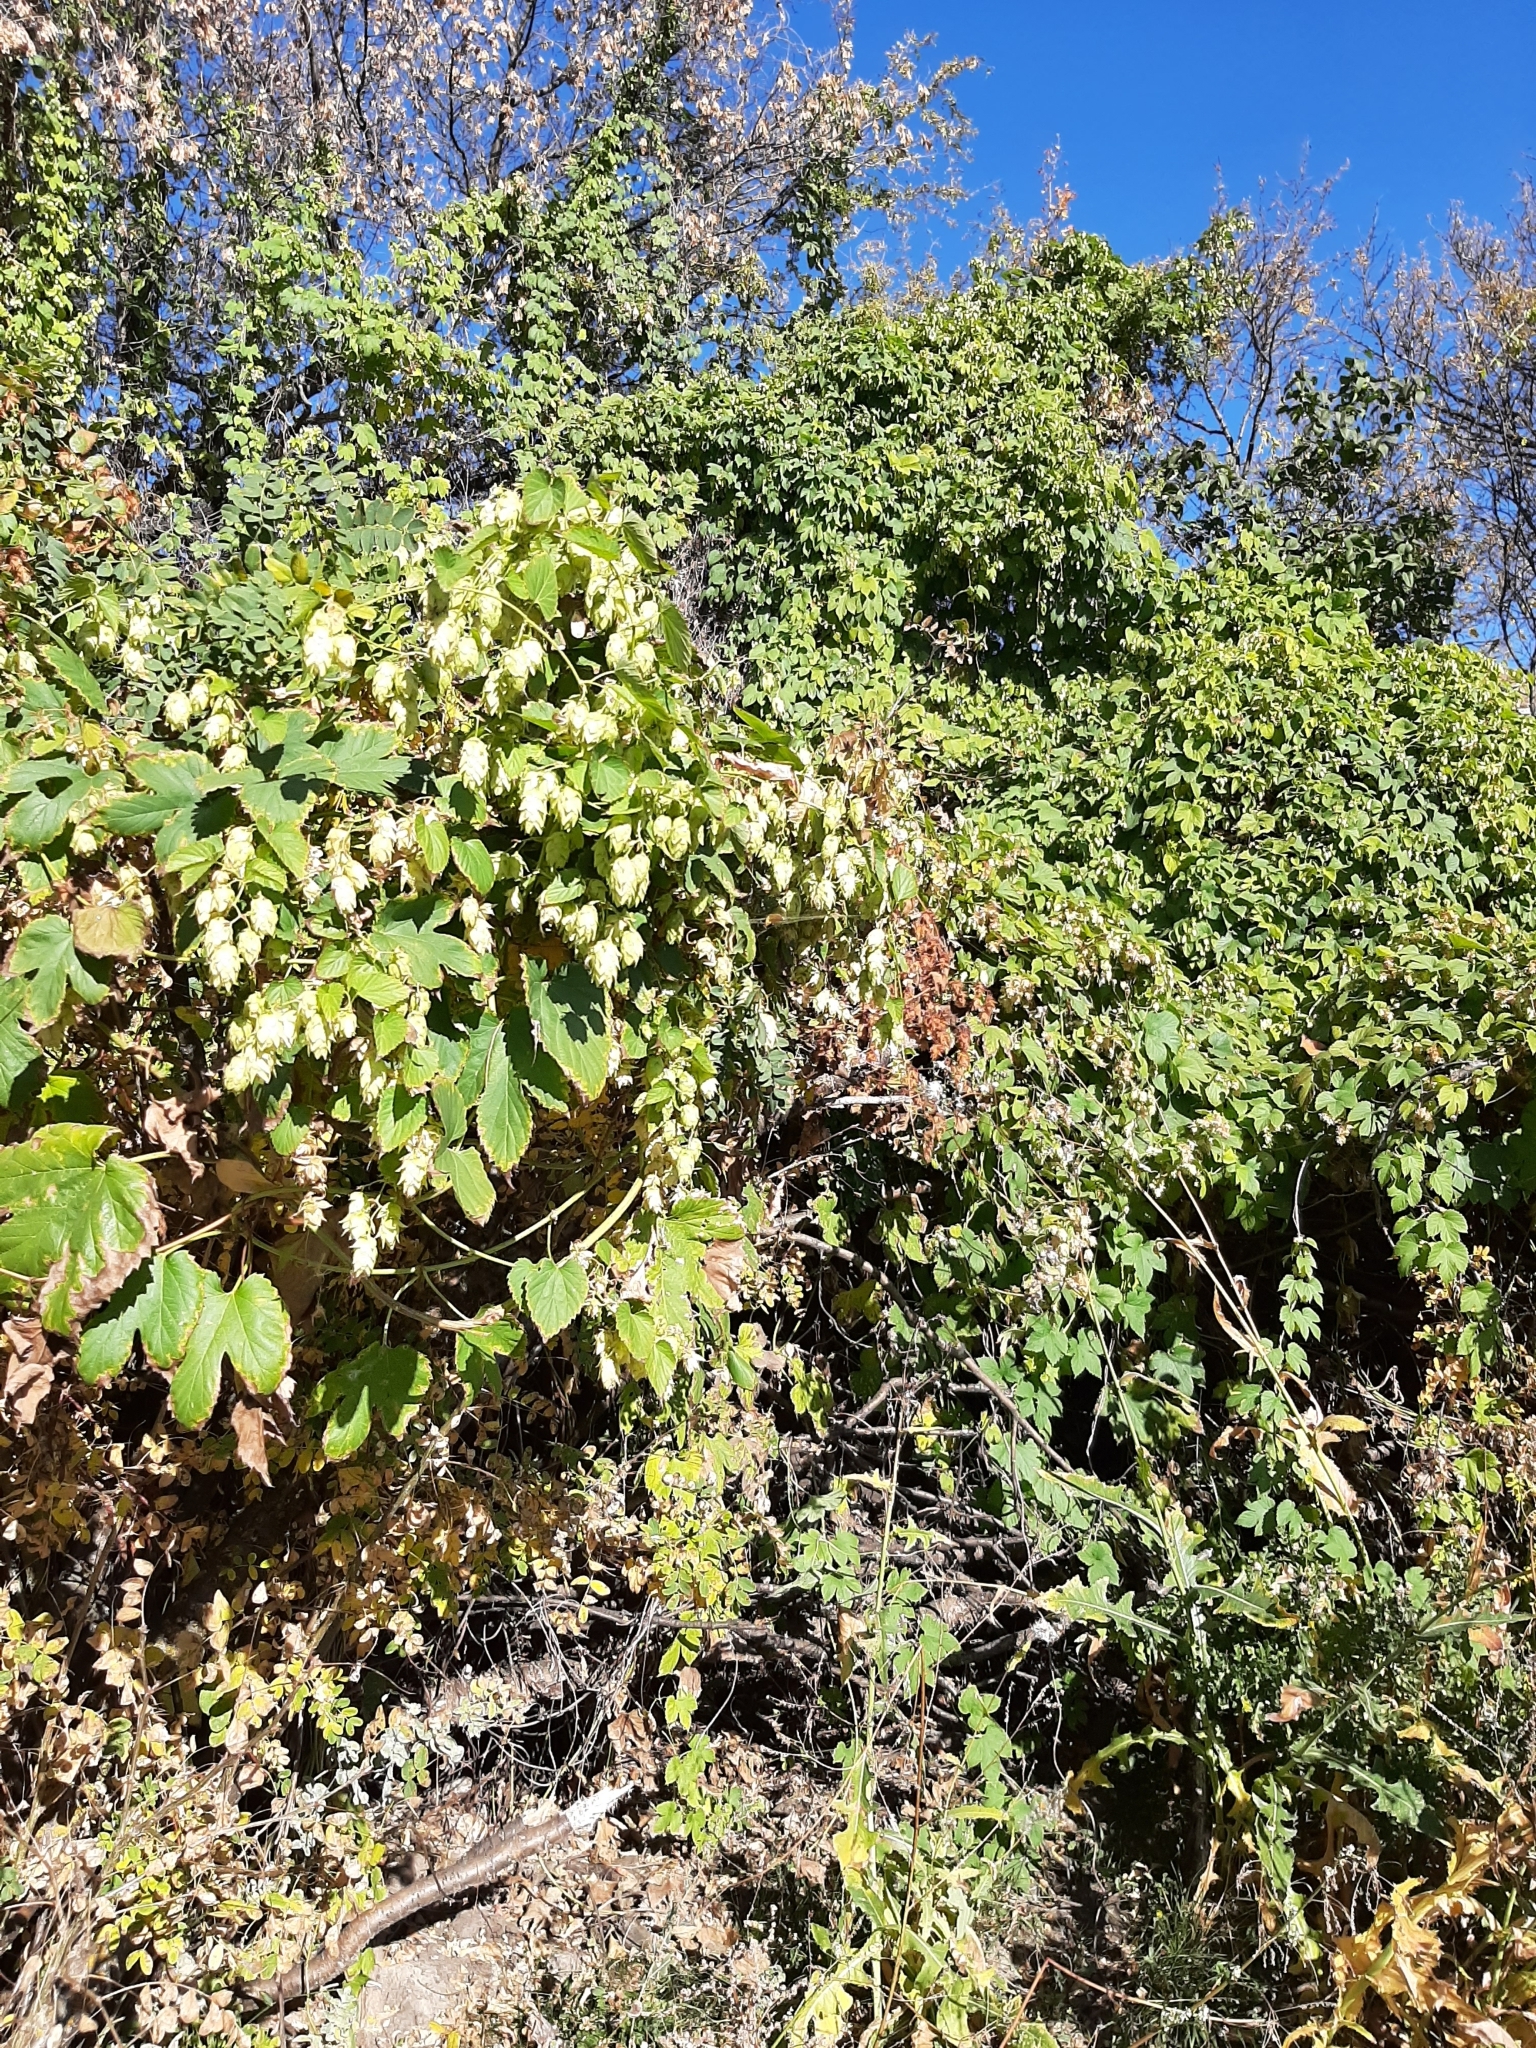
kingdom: Plantae
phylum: Tracheophyta
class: Magnoliopsida
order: Rosales
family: Cannabaceae
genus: Humulus
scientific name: Humulus lupulus
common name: Hop
